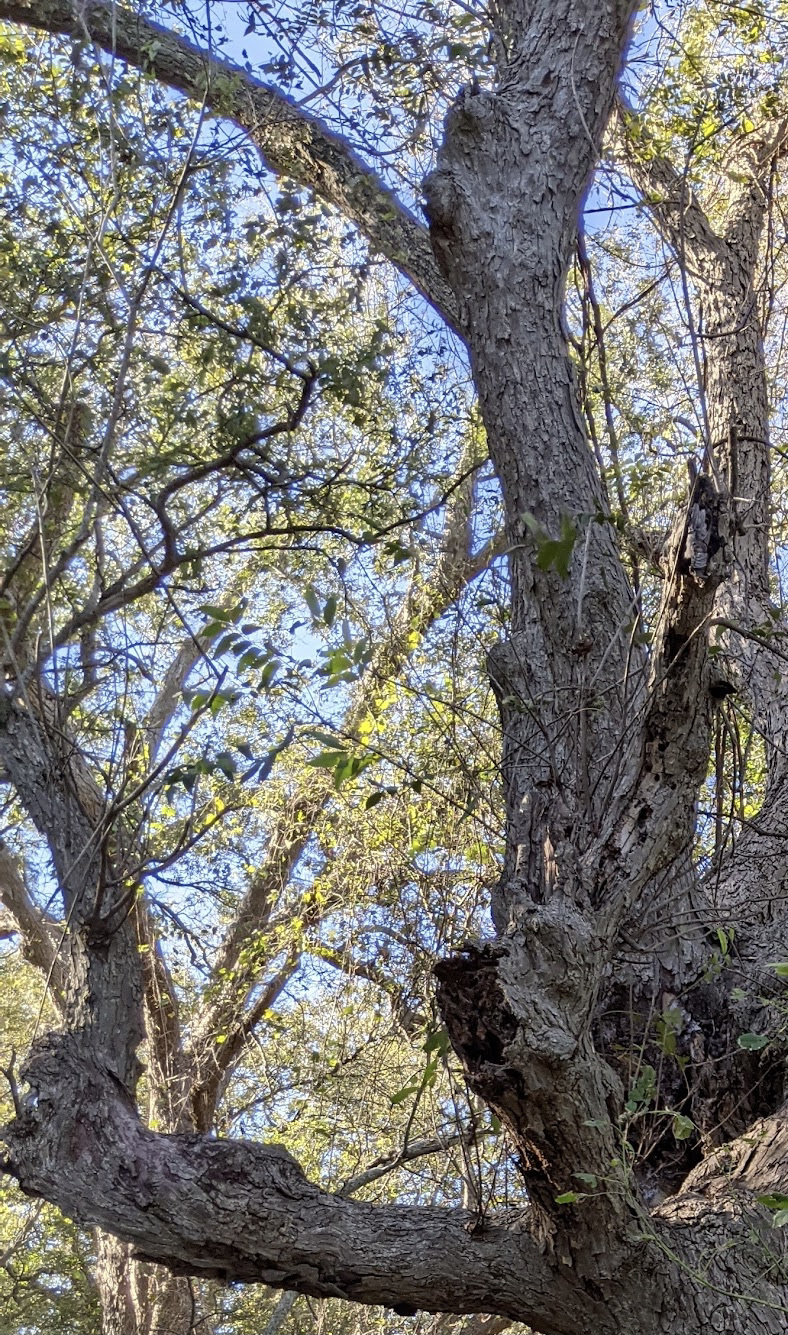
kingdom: Plantae
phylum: Tracheophyta
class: Magnoliopsida
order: Fagales
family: Juglandaceae
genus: Carya
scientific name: Carya illinoinensis
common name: Pecan
